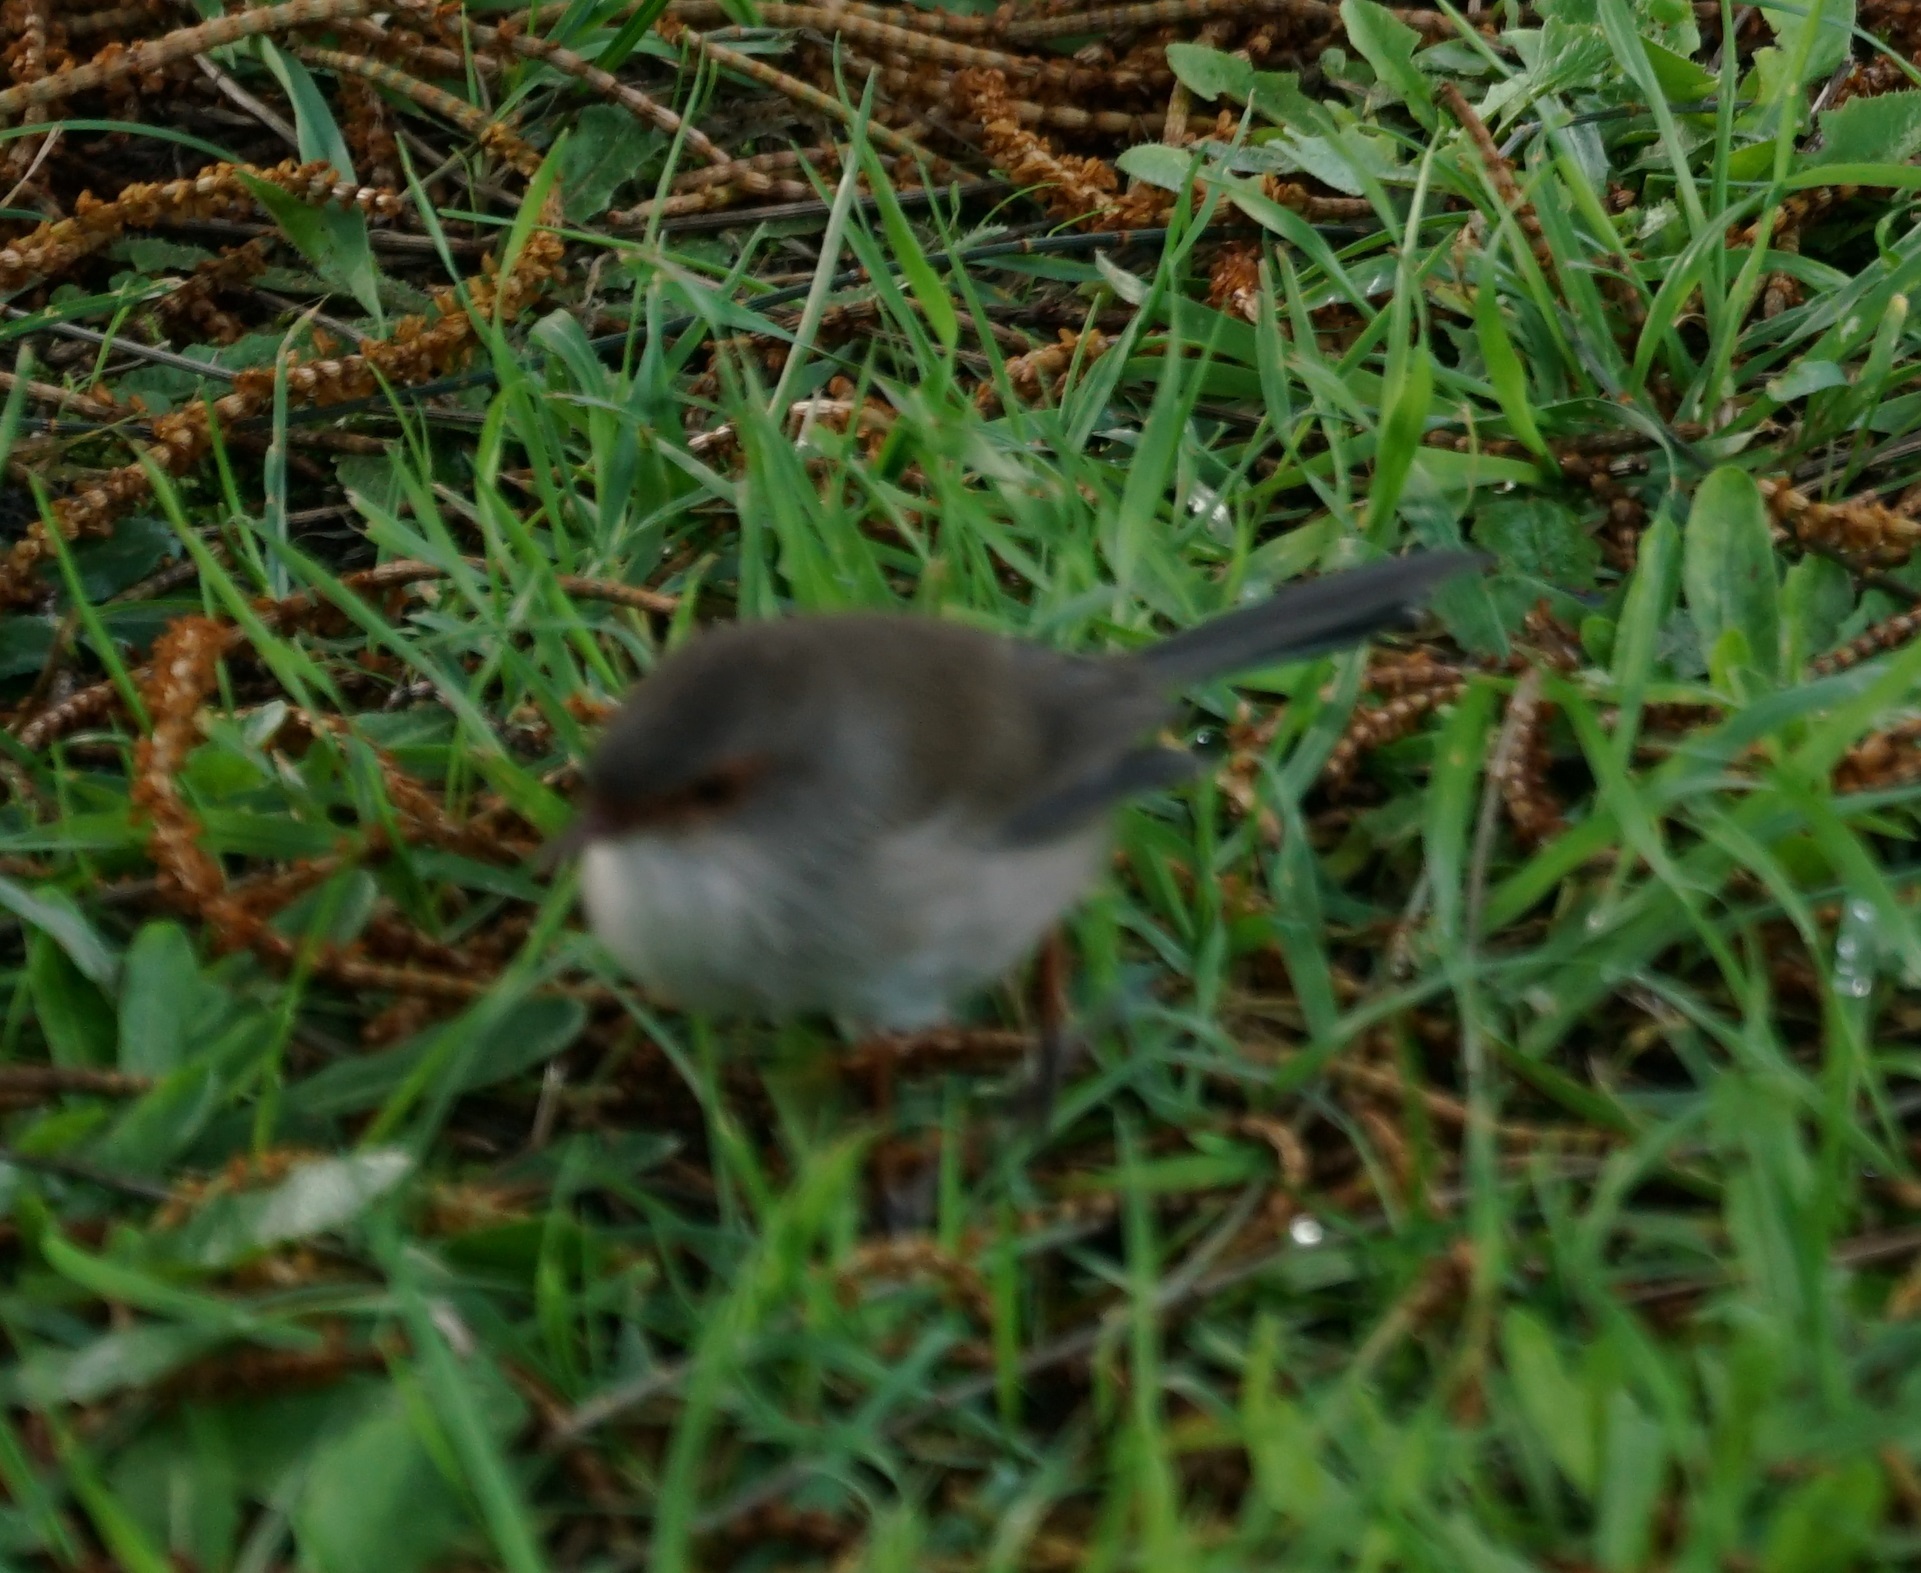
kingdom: Animalia
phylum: Chordata
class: Aves
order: Passeriformes
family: Maluridae
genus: Malurus
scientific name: Malurus cyaneus
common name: Superb fairywren
